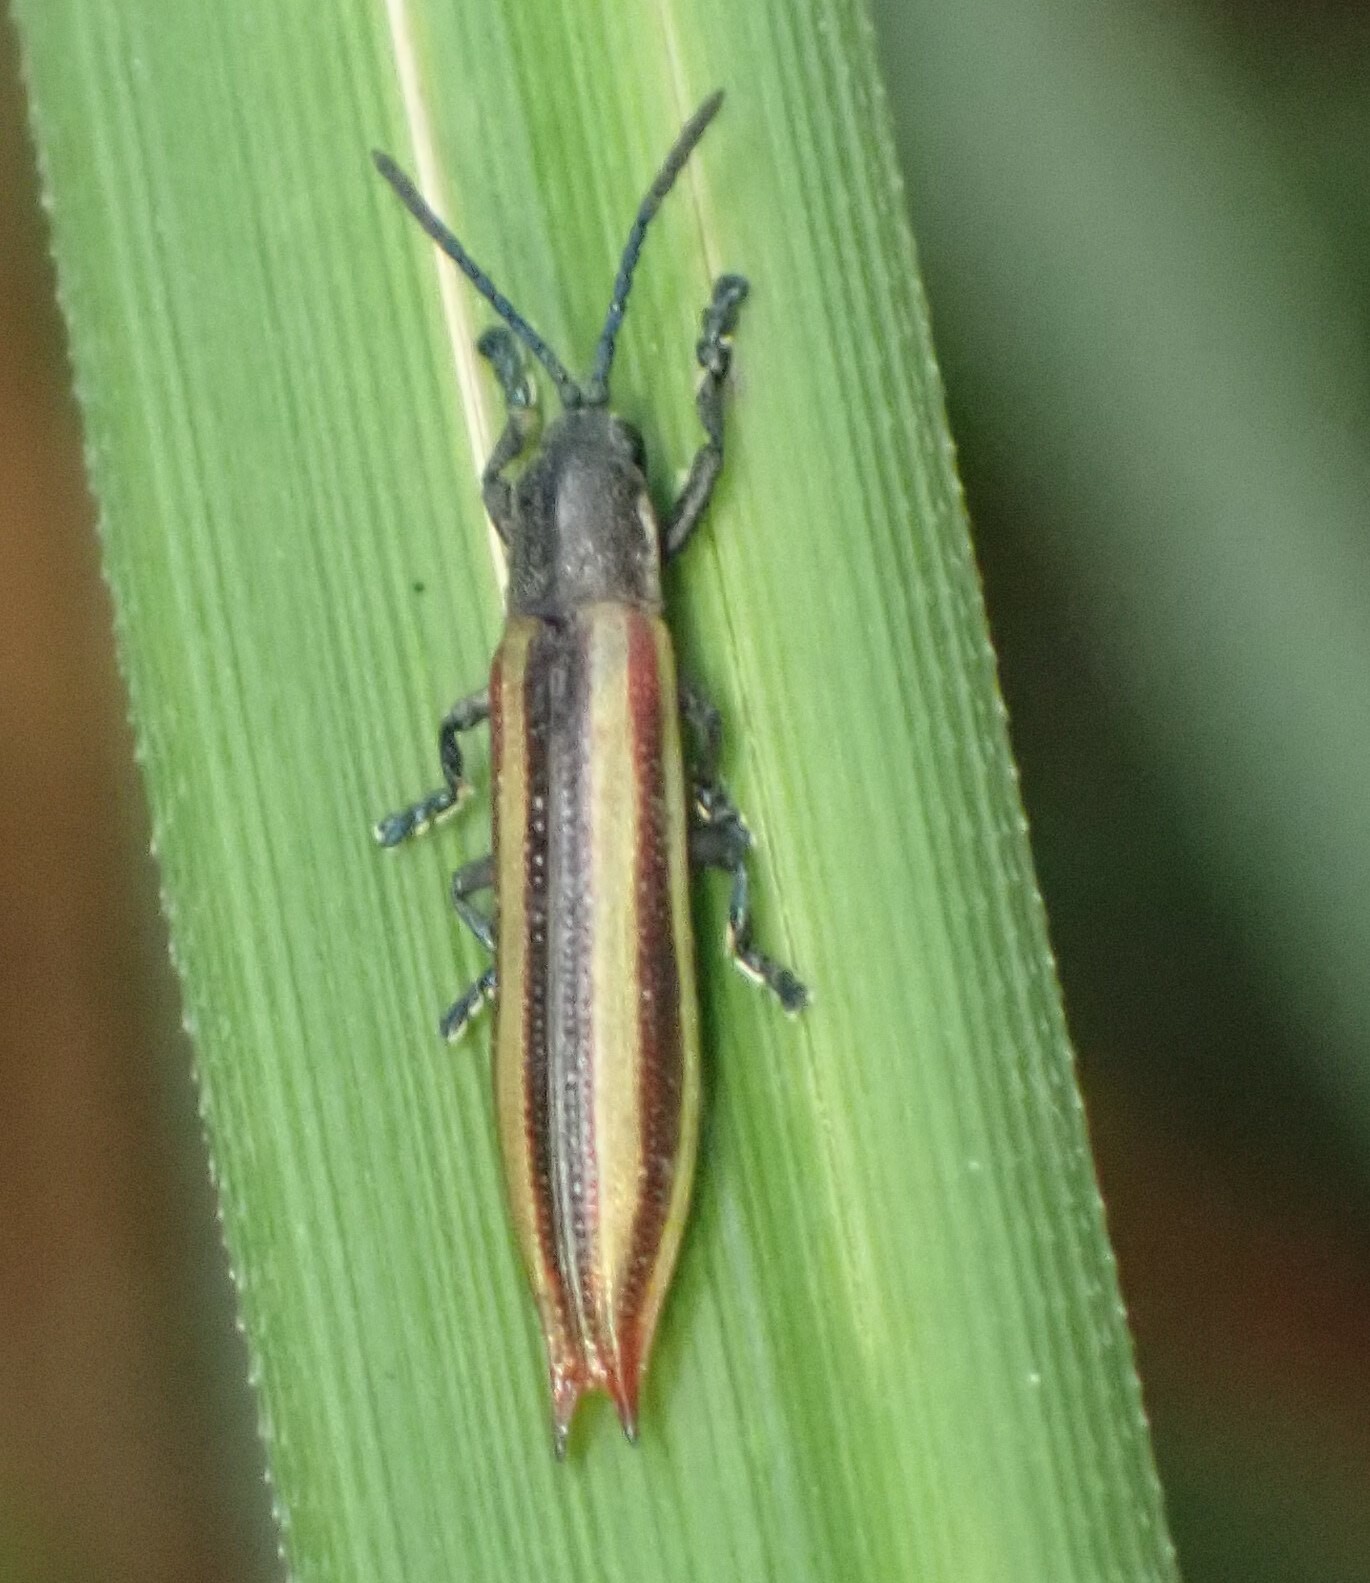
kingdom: Animalia
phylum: Arthropoda
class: Insecta
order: Coleoptera
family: Chrysomelidae
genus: Eurispa
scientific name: Eurispa vittata
